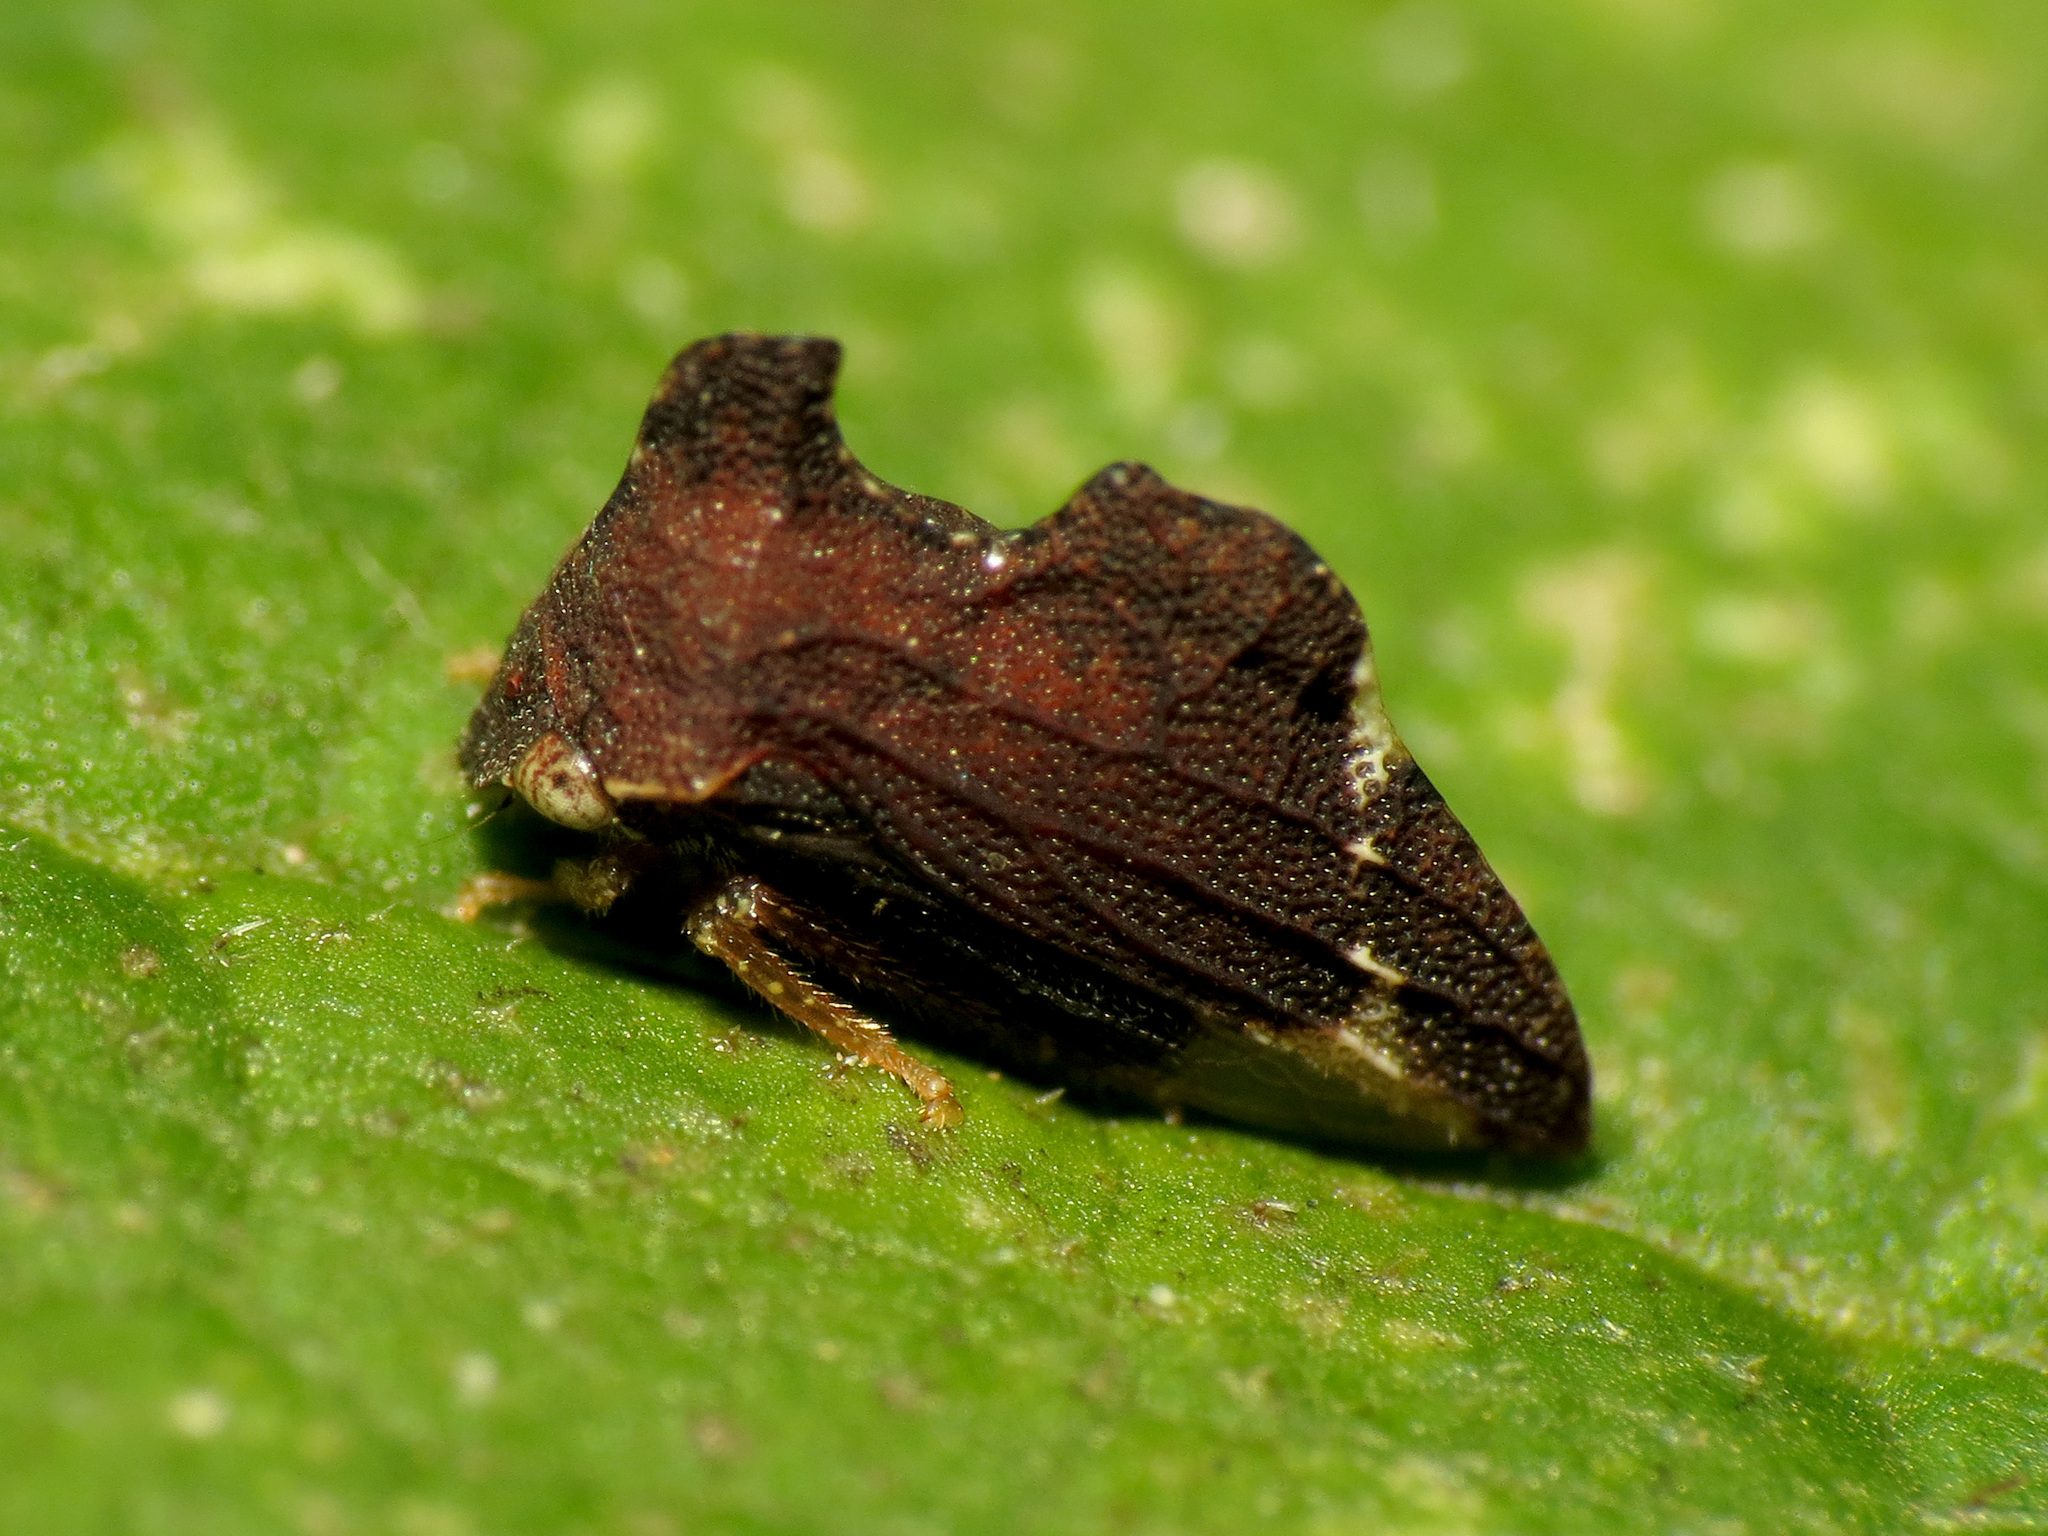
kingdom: Animalia
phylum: Arthropoda
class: Insecta
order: Hemiptera
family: Membracidae
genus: Entylia
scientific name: Entylia carinata
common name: Keeled treehopper
